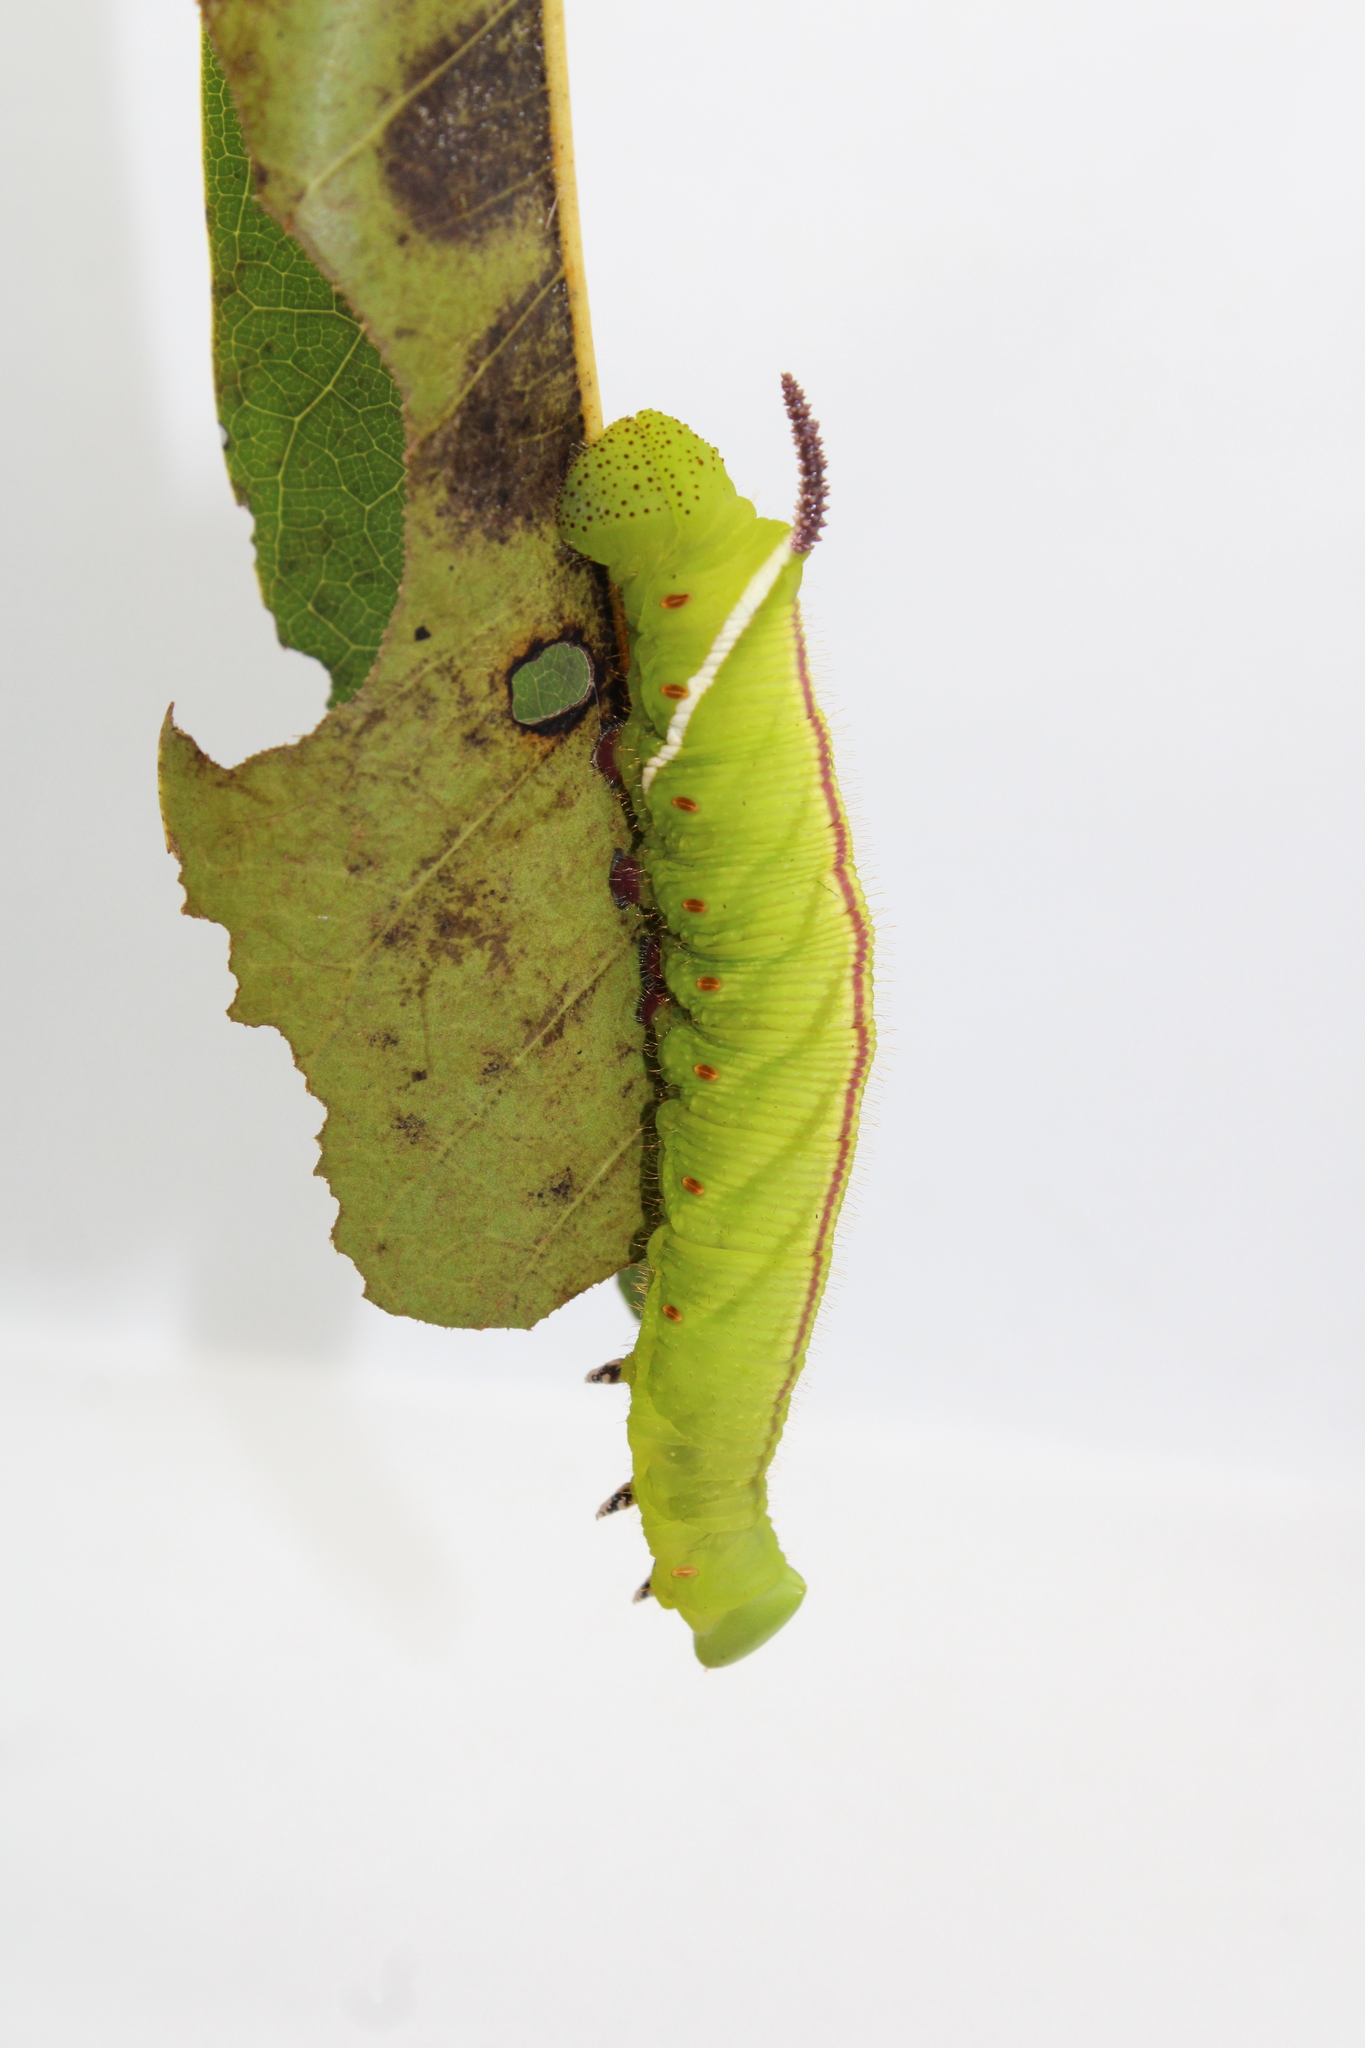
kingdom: Animalia
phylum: Arthropoda
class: Insecta
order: Lepidoptera
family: Sphingidae
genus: Cocytius
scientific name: Cocytius antaeus
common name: Giant sphinx
